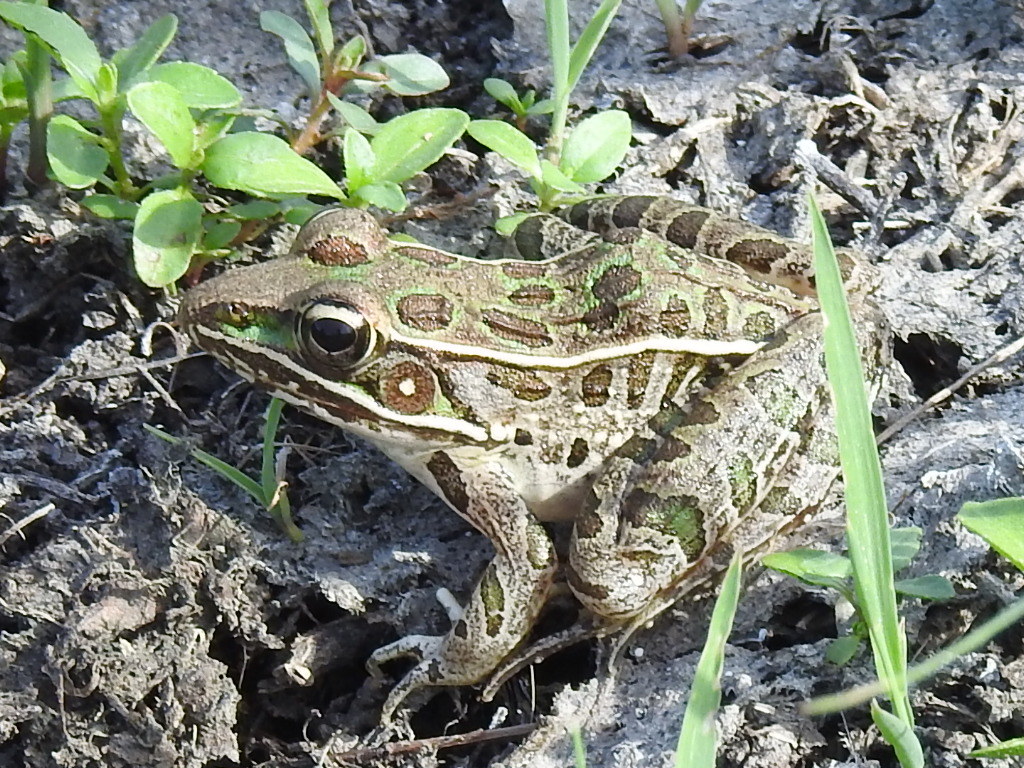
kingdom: Animalia
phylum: Chordata
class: Amphibia
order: Anura
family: Ranidae
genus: Lithobates
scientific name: Lithobates sphenocephalus
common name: Southern leopard frog
